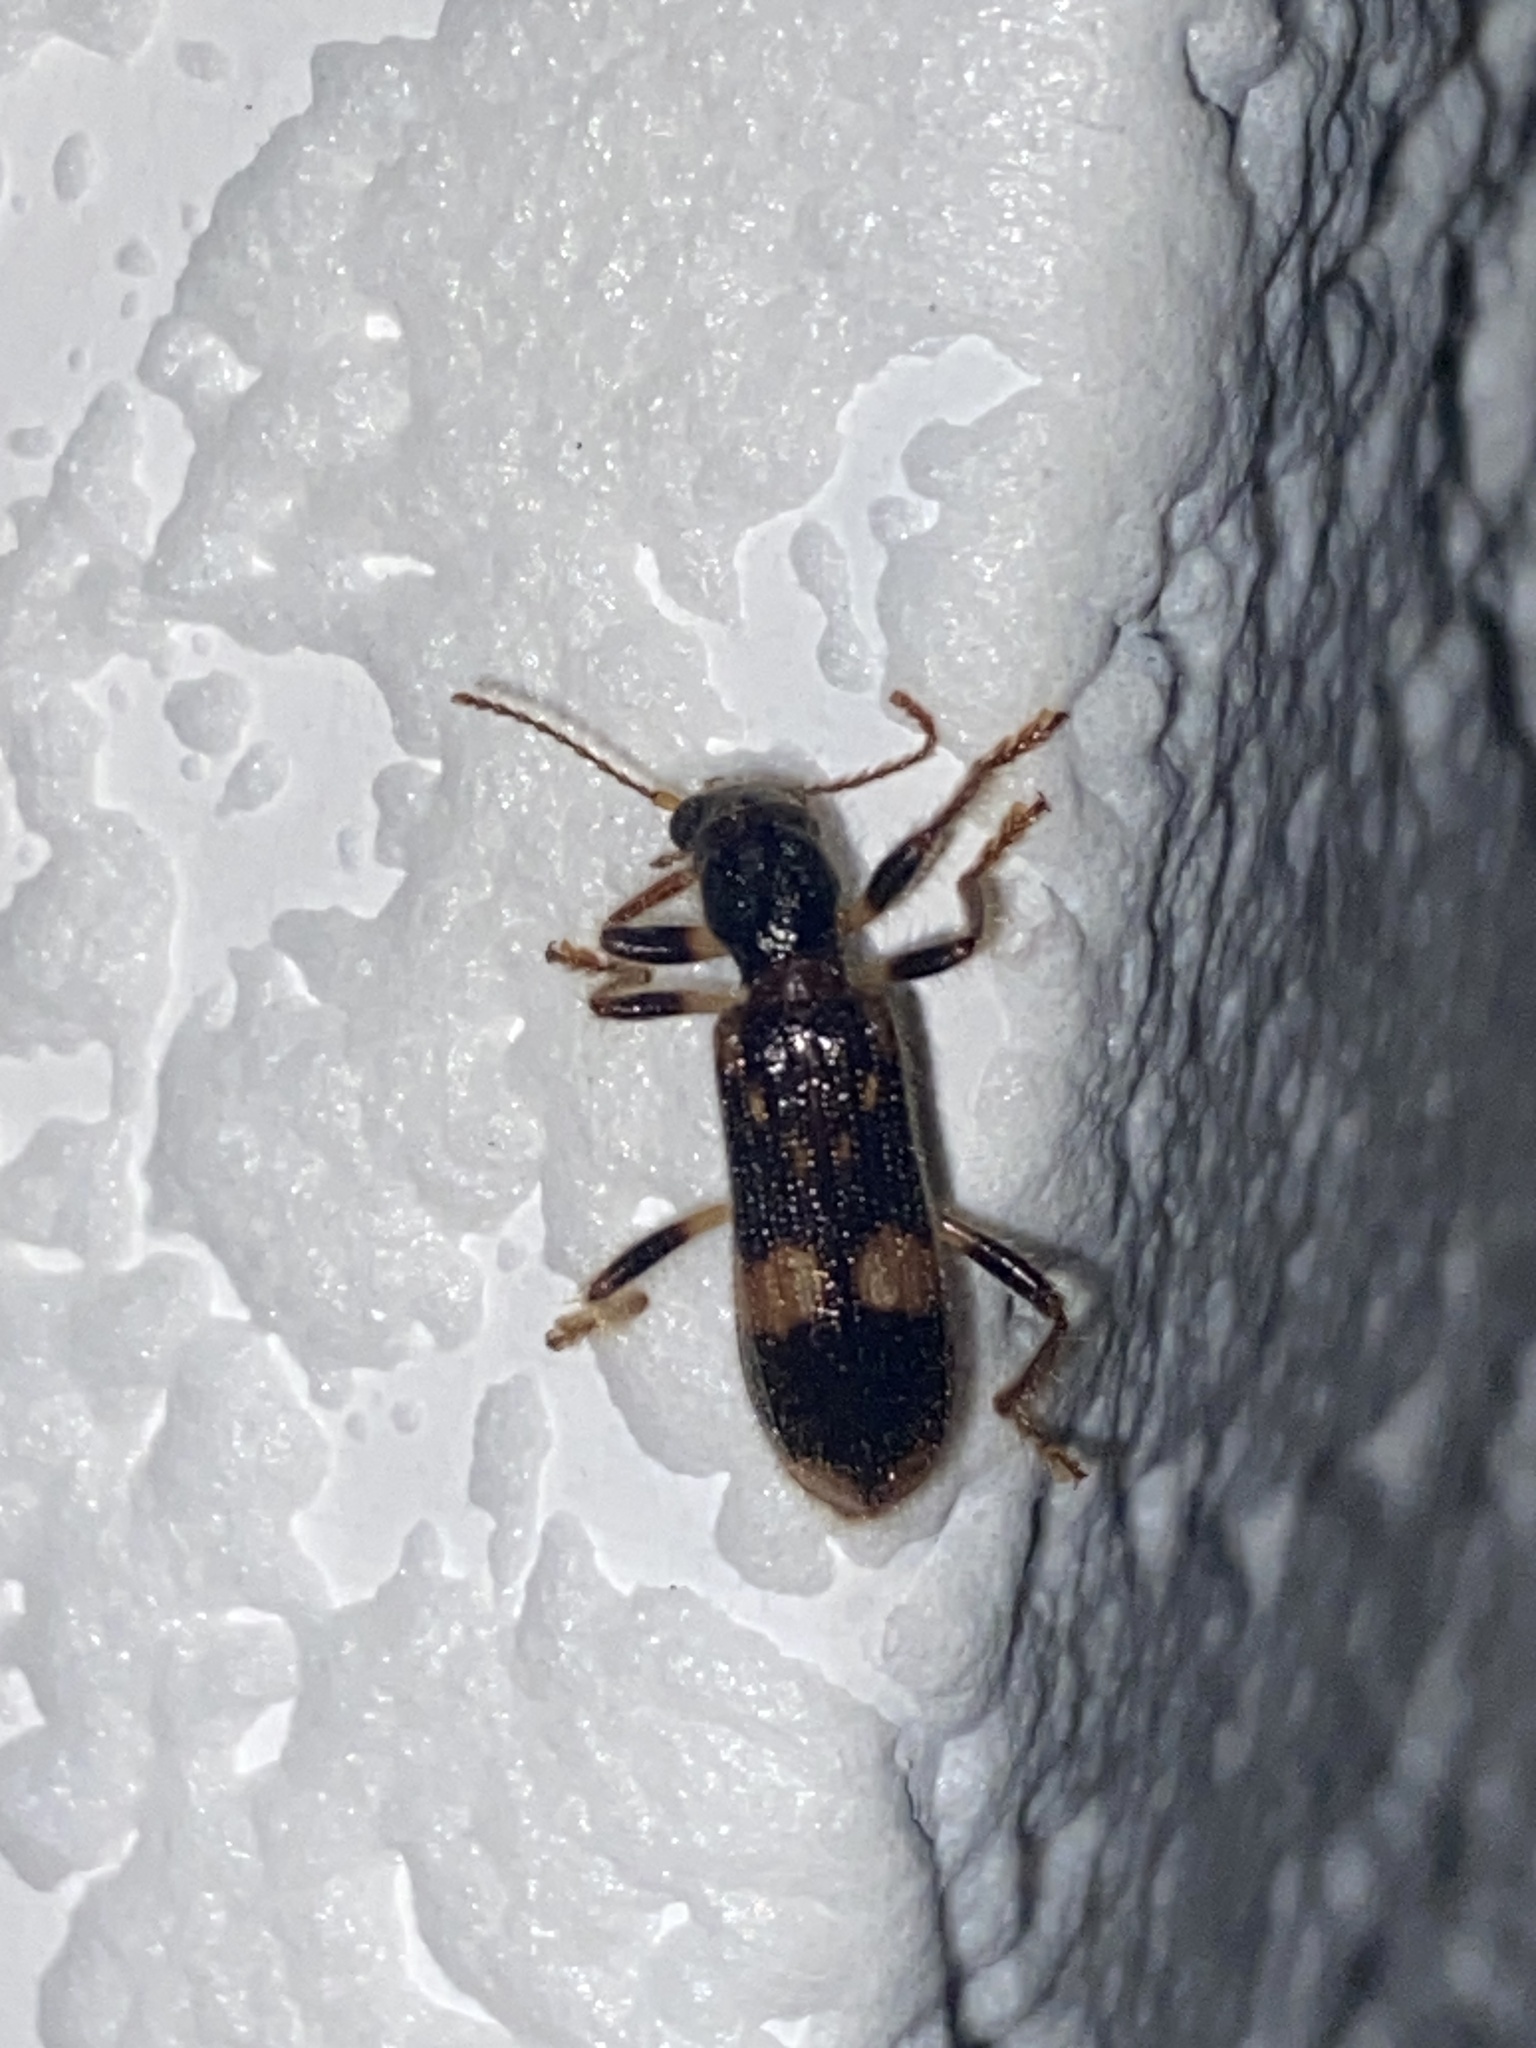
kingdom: Animalia
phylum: Arthropoda
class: Insecta
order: Coleoptera
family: Cleridae
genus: Opilo
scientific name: Opilo mollis
